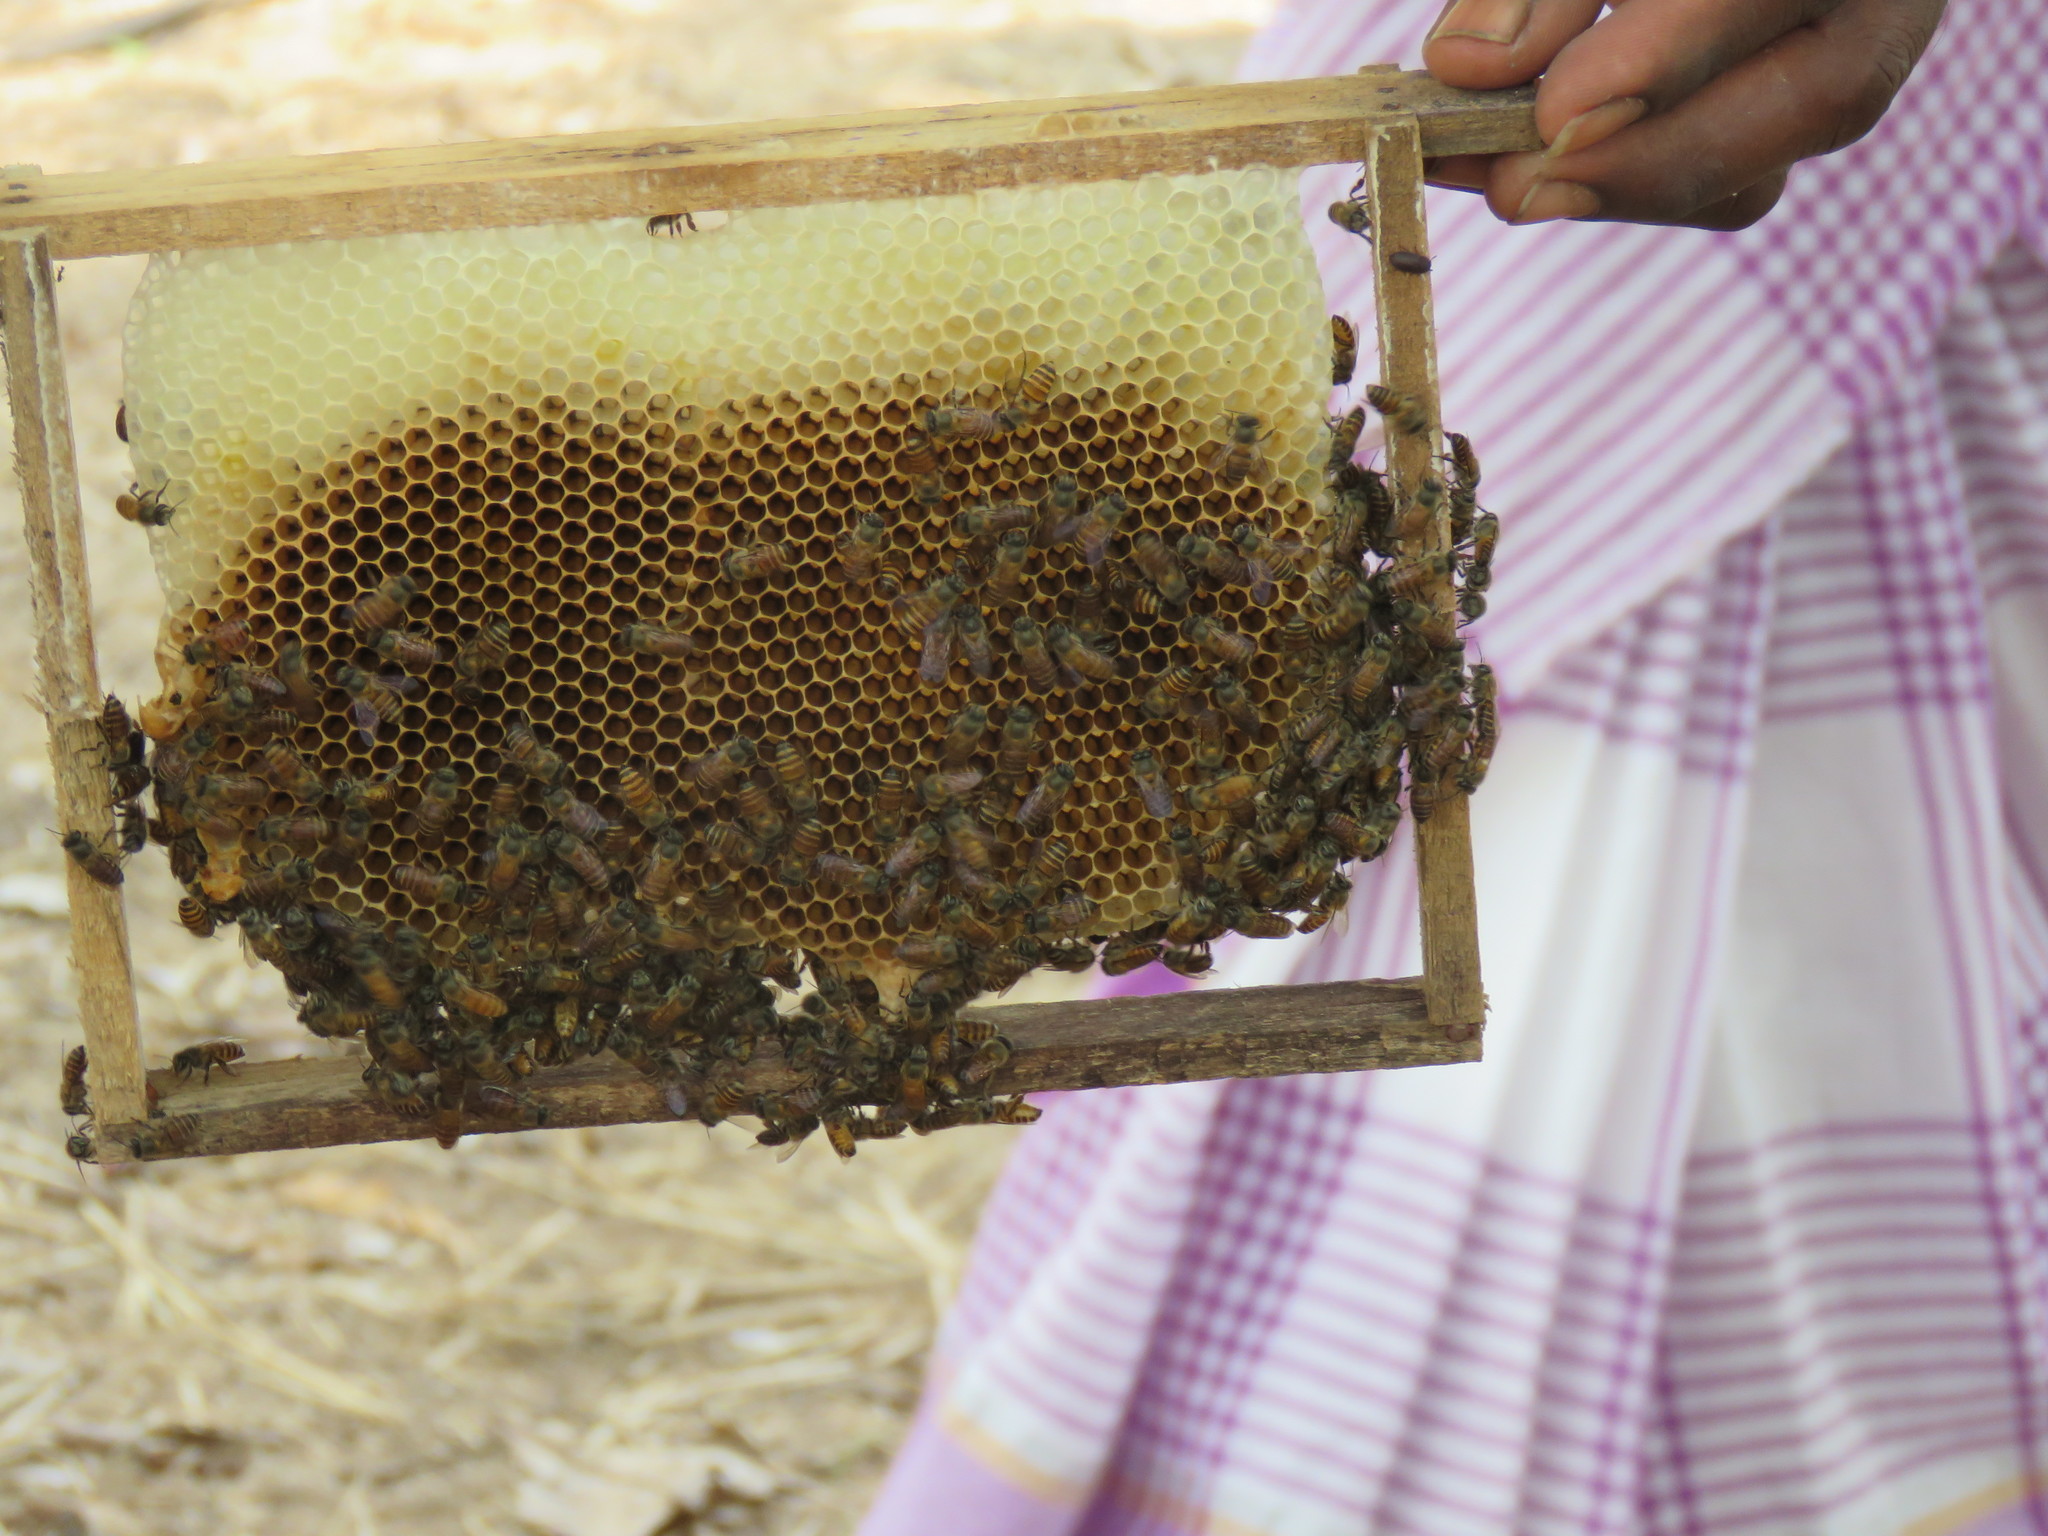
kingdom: Animalia
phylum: Arthropoda
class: Insecta
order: Hymenoptera
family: Apidae
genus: Apis
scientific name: Apis cerana
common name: Honey bee
